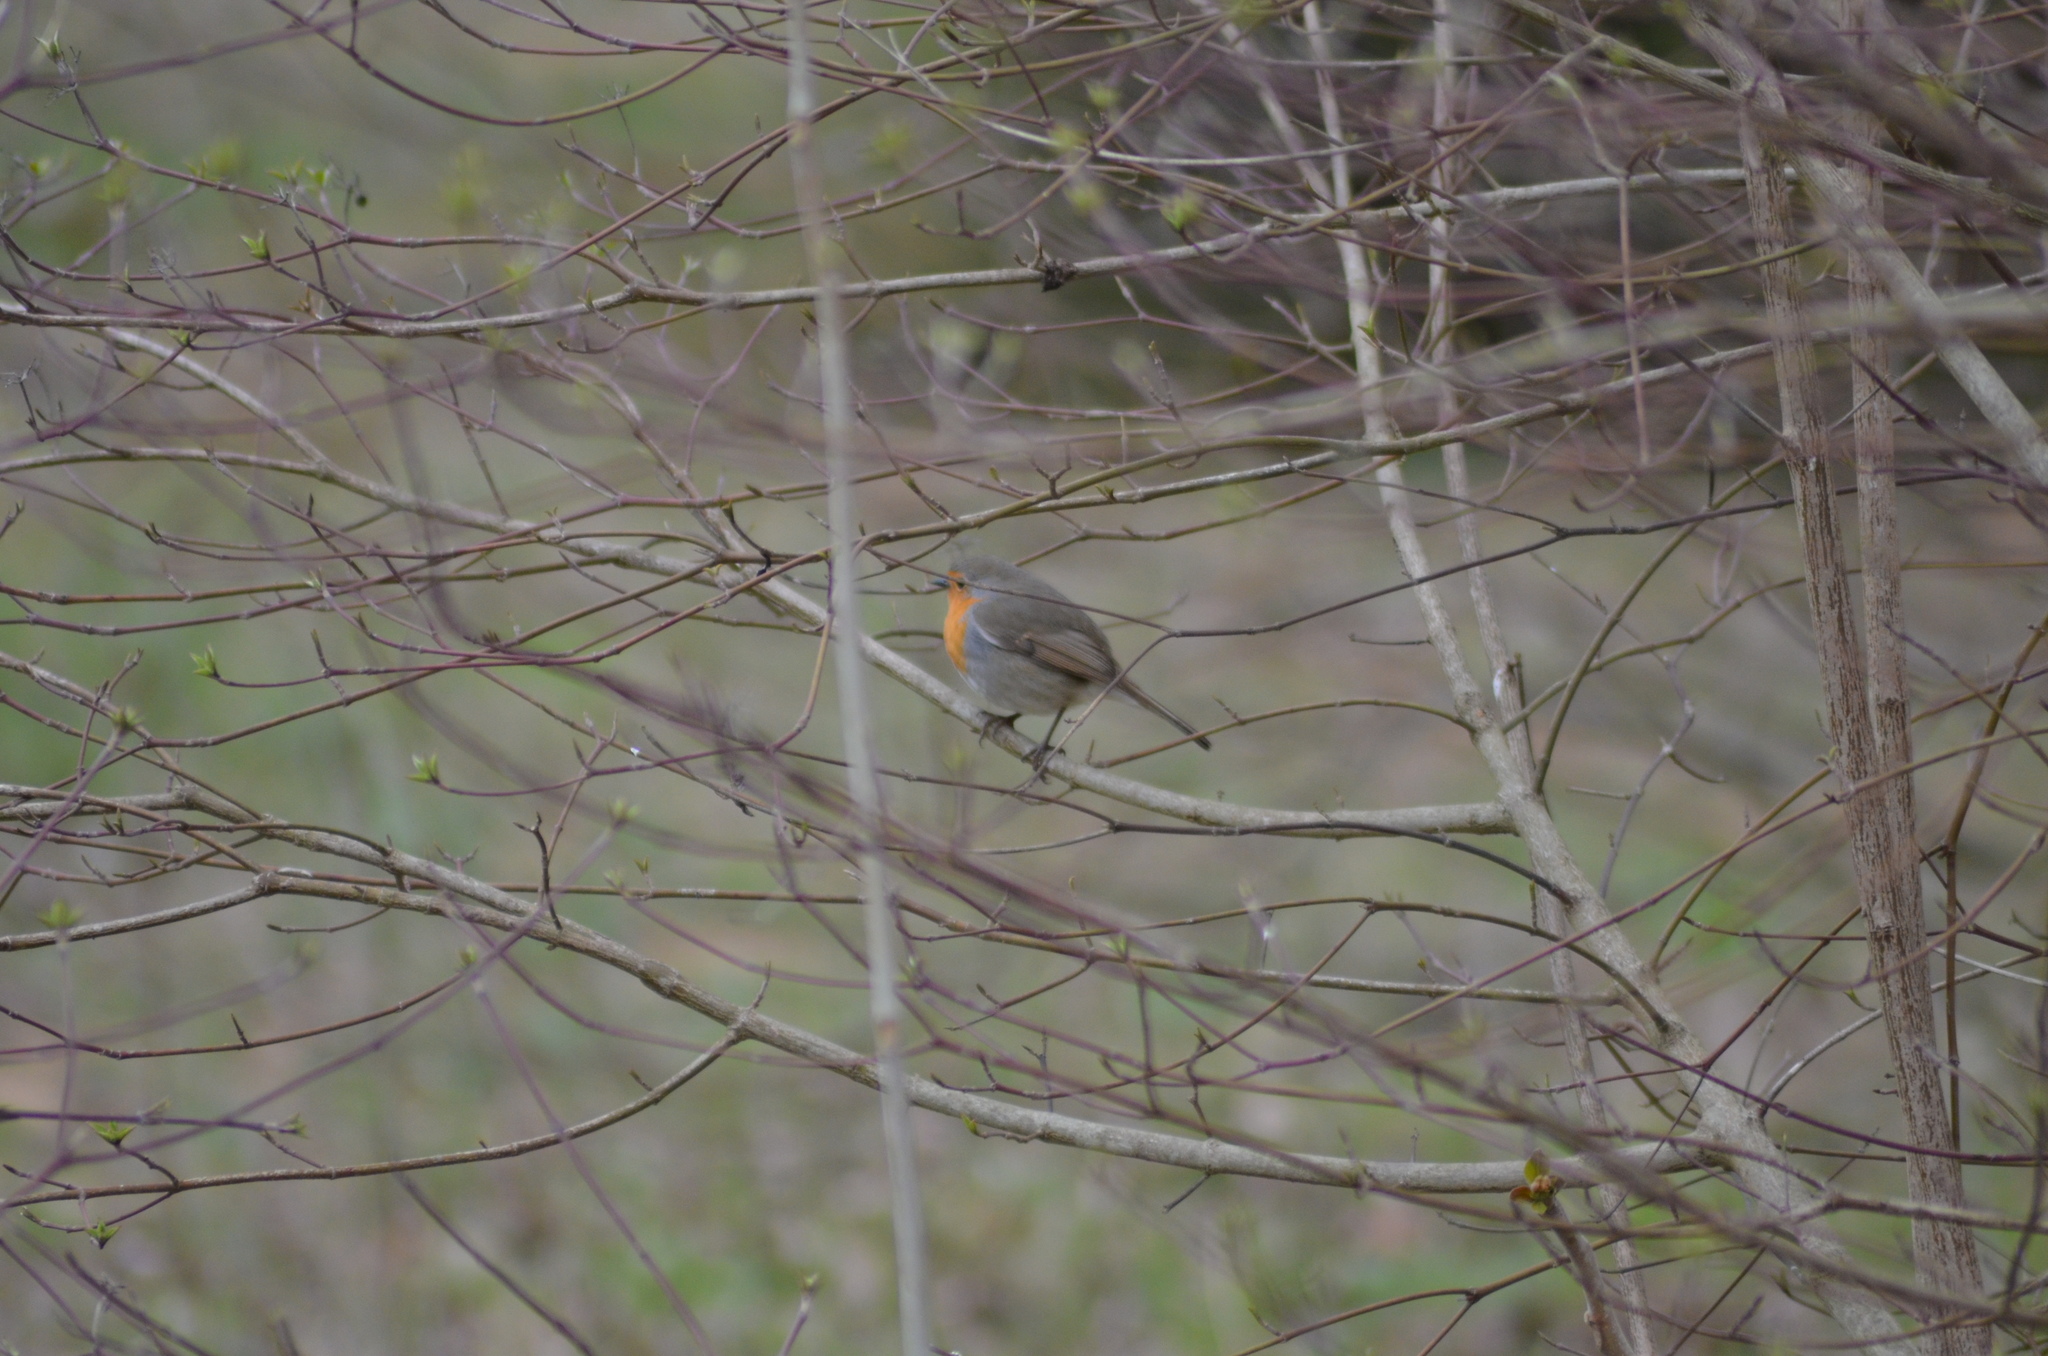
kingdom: Animalia
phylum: Chordata
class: Aves
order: Passeriformes
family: Muscicapidae
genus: Erithacus
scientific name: Erithacus rubecula
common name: European robin
